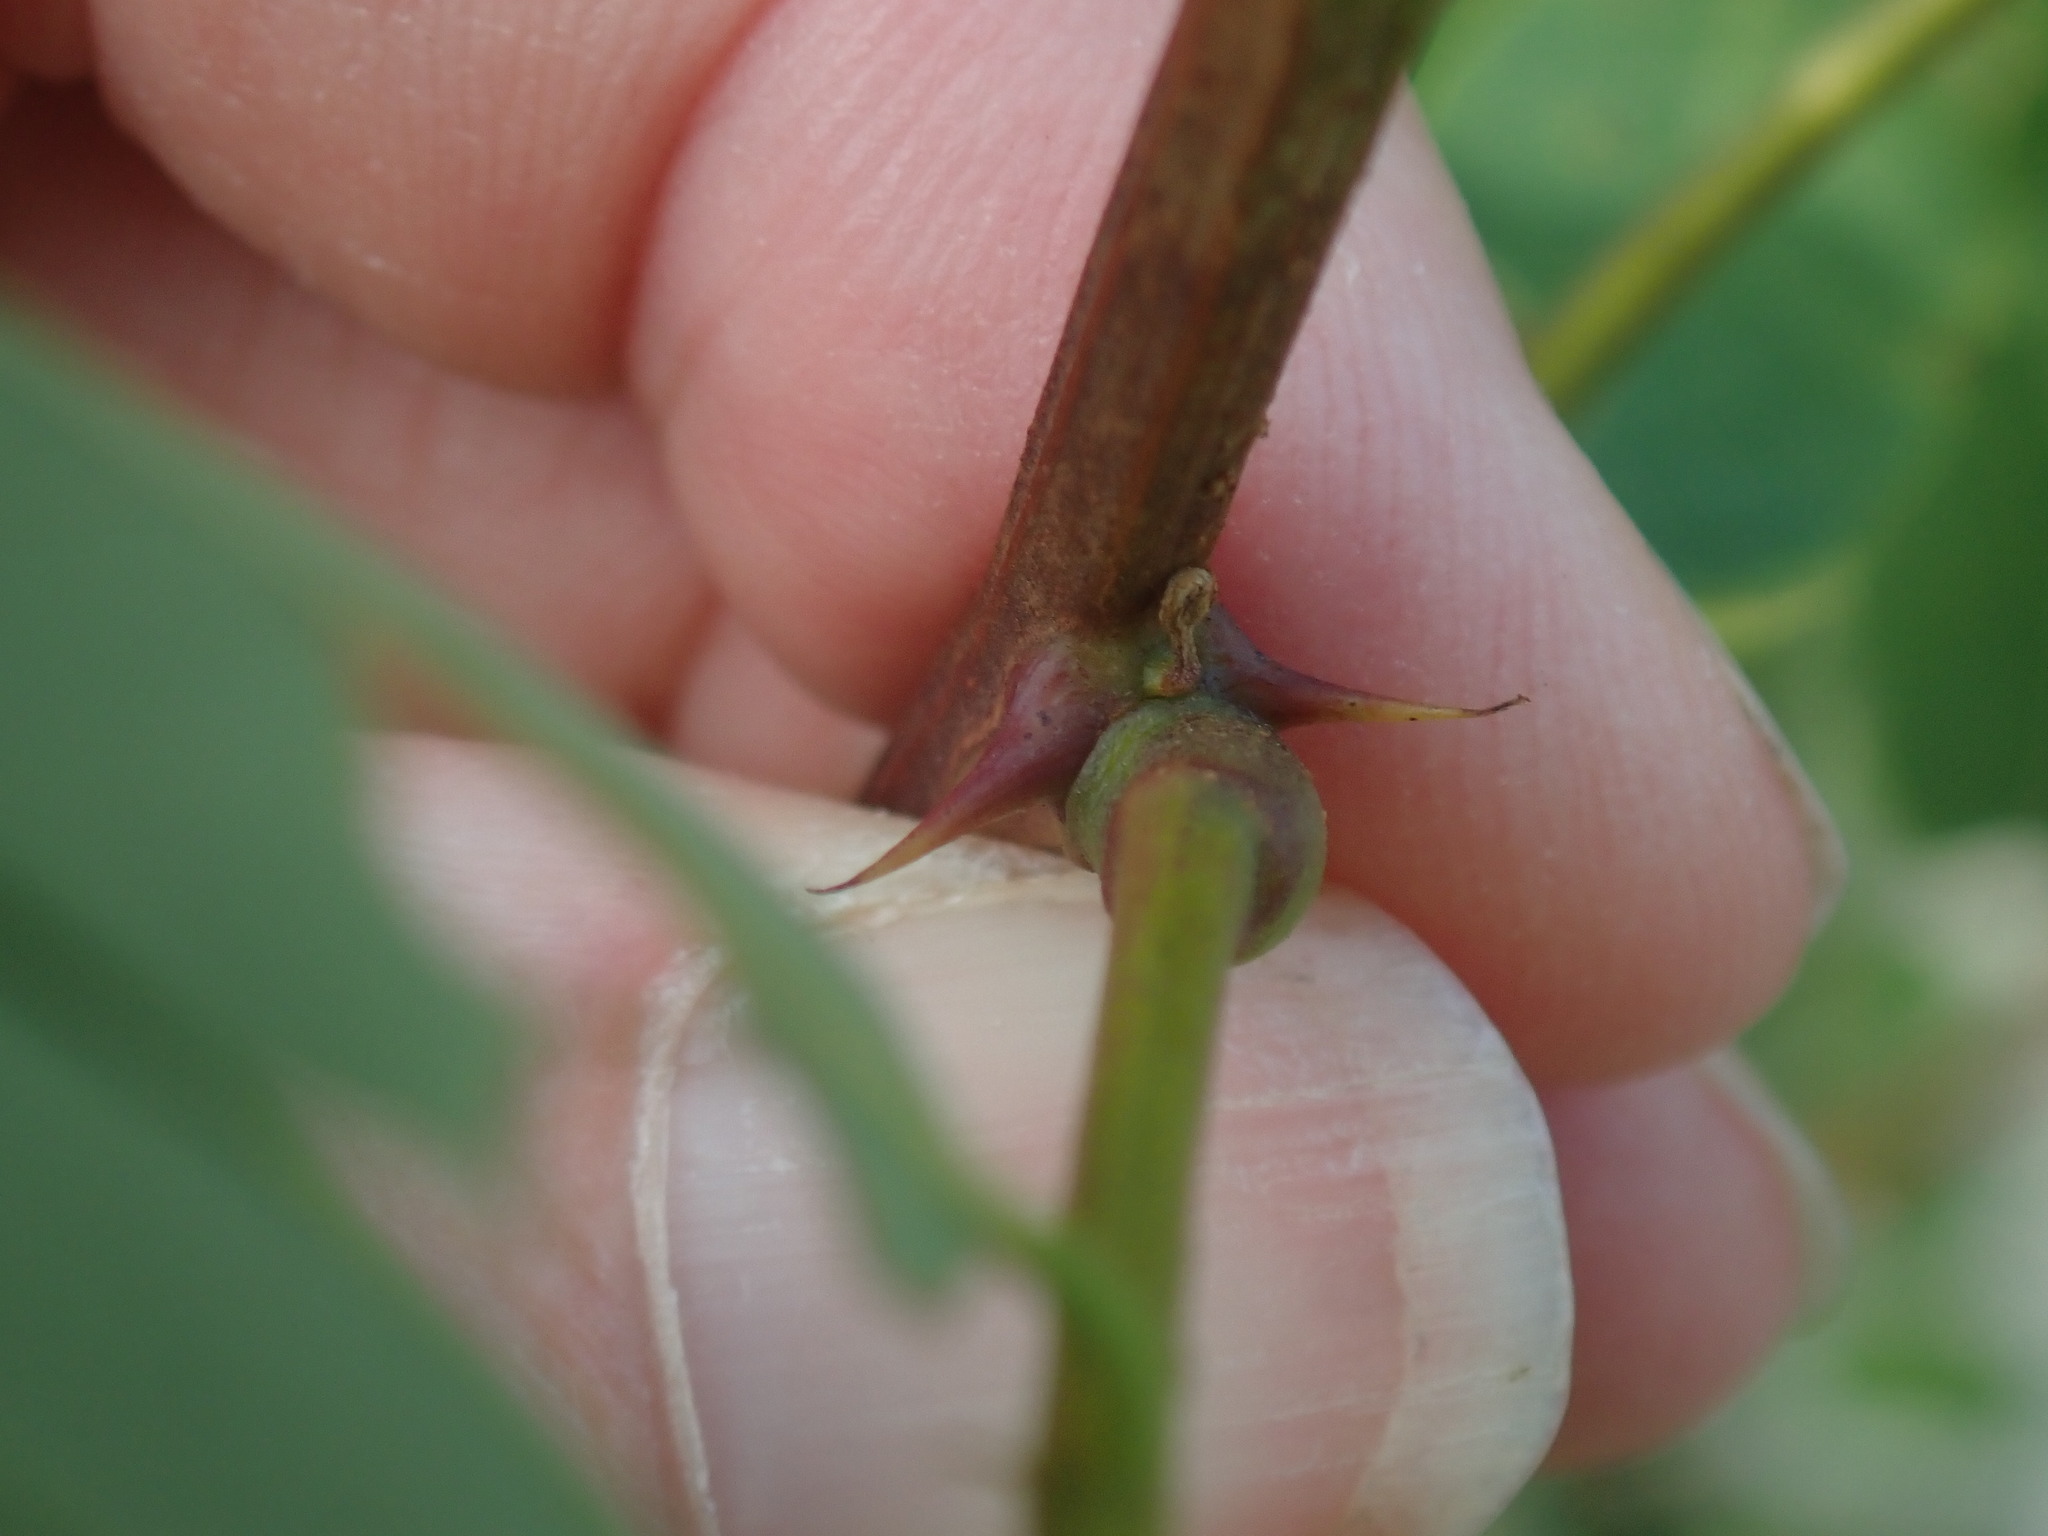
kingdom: Plantae
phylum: Tracheophyta
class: Magnoliopsida
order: Fabales
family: Fabaceae
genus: Robinia
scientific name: Robinia pseudoacacia
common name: Black locust
